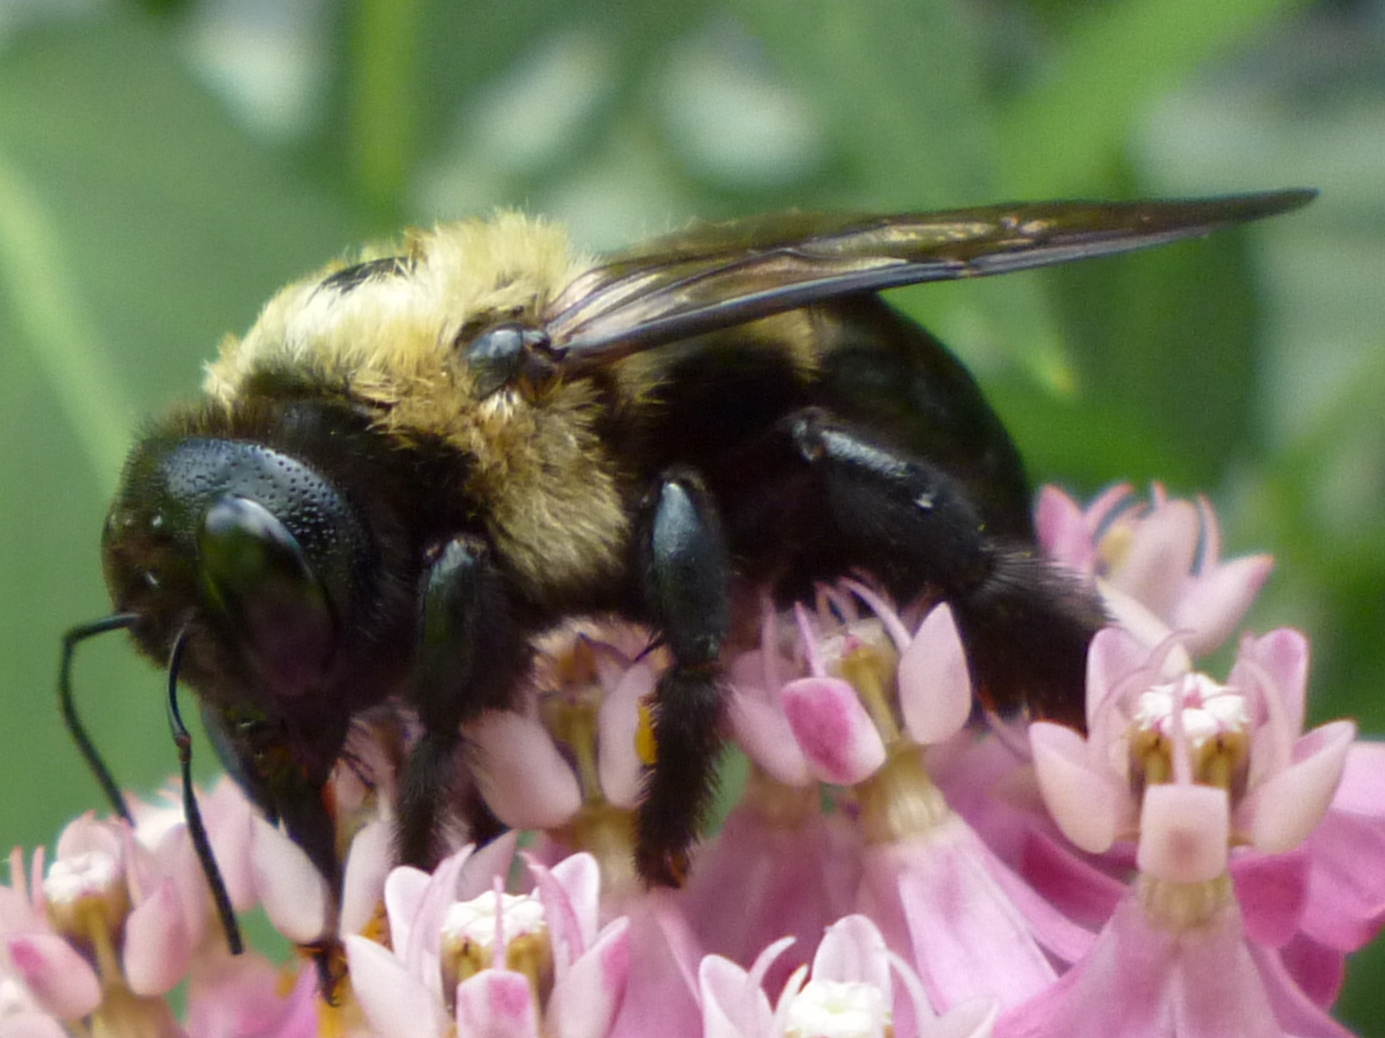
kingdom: Animalia
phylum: Arthropoda
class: Insecta
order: Hymenoptera
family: Apidae
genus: Xylocopa
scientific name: Xylocopa virginica
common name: Carpenter bee
